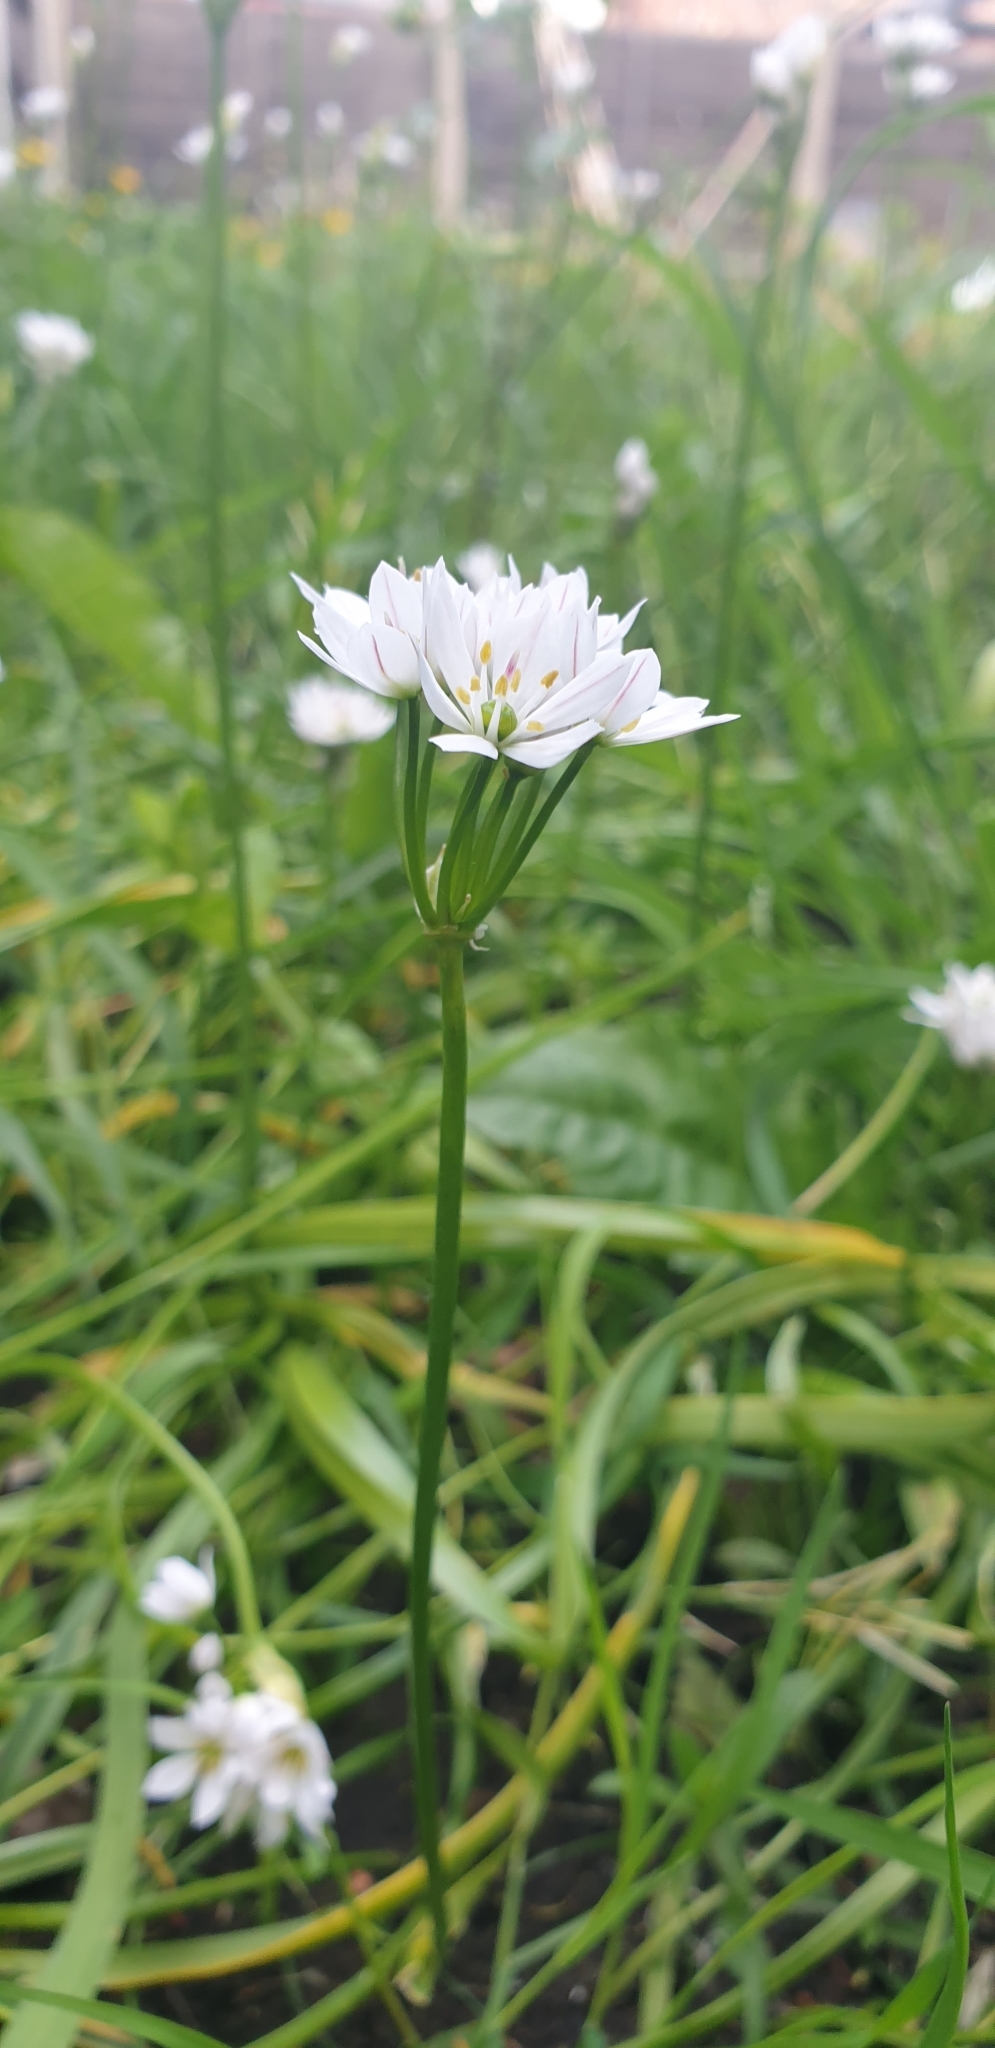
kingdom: Plantae
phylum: Tracheophyta
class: Liliopsida
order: Asparagales
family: Amaryllidaceae
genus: Allium
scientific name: Allium trifoliatum
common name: Pink garlic
